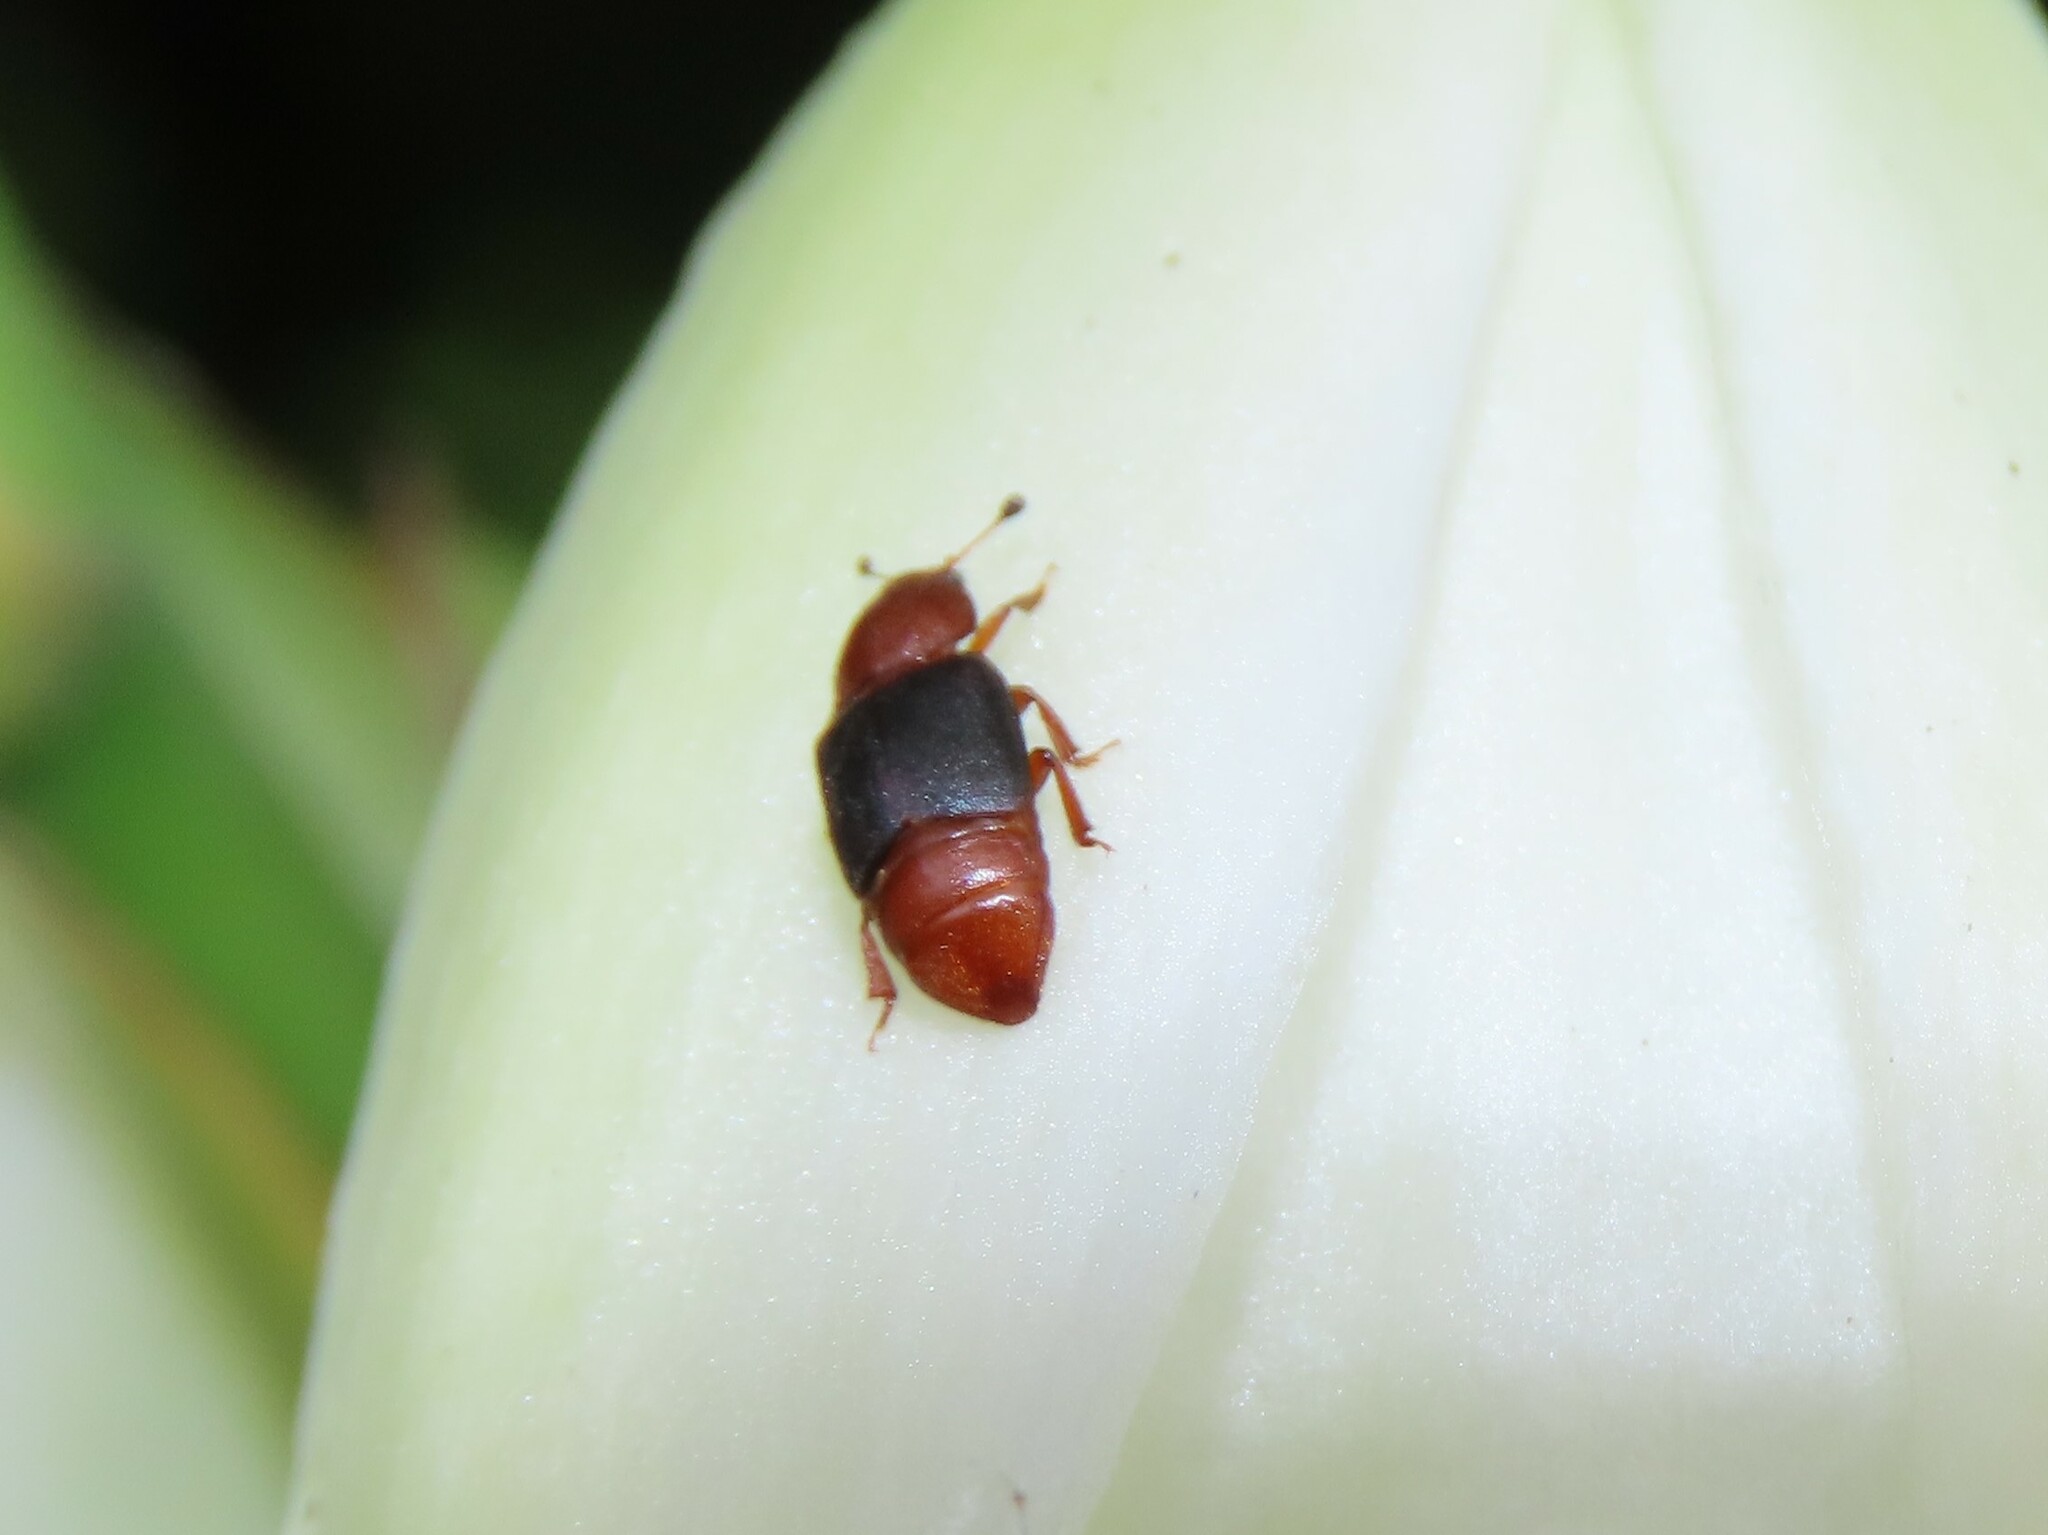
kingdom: Animalia
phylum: Arthropoda
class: Insecta
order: Coleoptera
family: Nitidulidae
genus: Carpophilus
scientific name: Carpophilus
